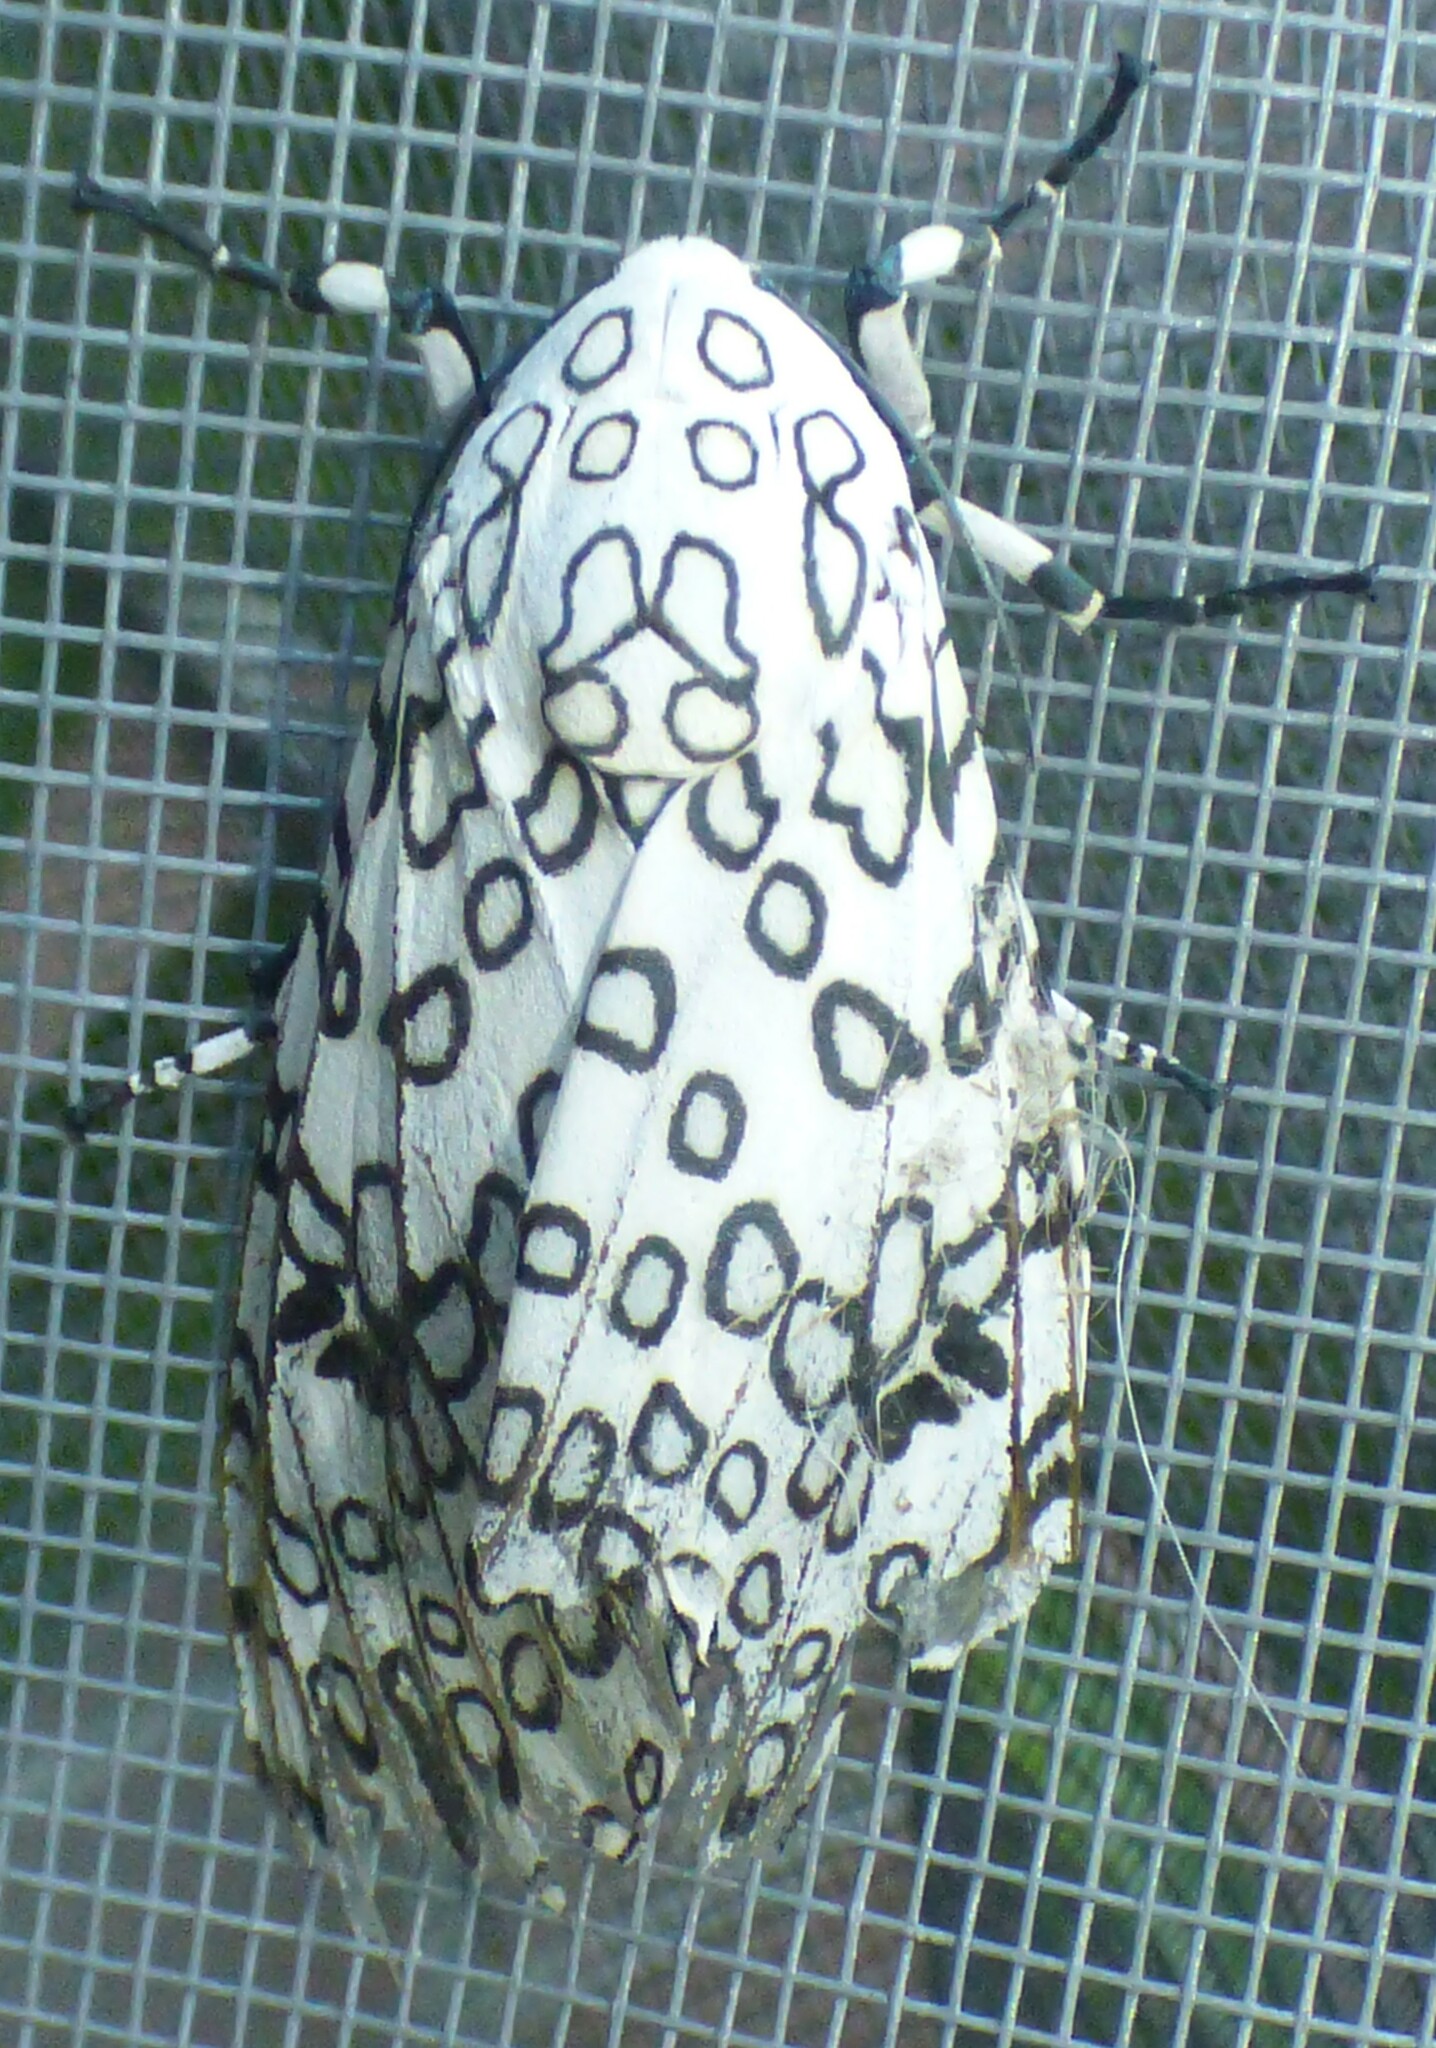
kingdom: Animalia
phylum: Arthropoda
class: Insecta
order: Lepidoptera
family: Erebidae
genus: Hypercompe
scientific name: Hypercompe scribonia
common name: Giant leopard moth
